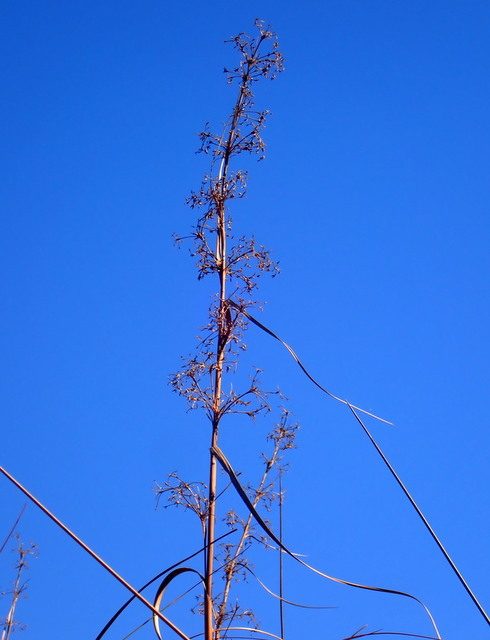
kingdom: Plantae
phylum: Tracheophyta
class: Liliopsida
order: Poales
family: Cyperaceae
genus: Cladium
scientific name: Cladium mariscus
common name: Great fen-sedge
